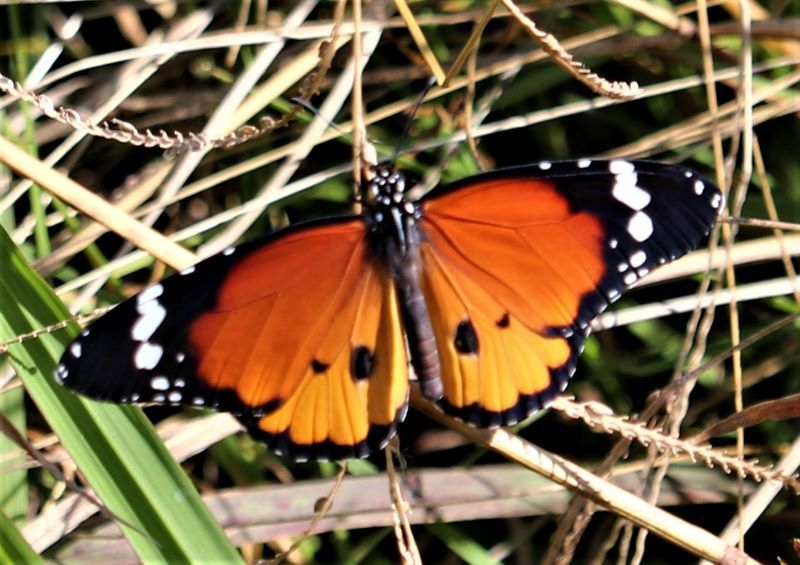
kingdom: Animalia
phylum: Arthropoda
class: Insecta
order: Lepidoptera
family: Nymphalidae
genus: Danaus
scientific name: Danaus chrysippus
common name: Plain tiger
